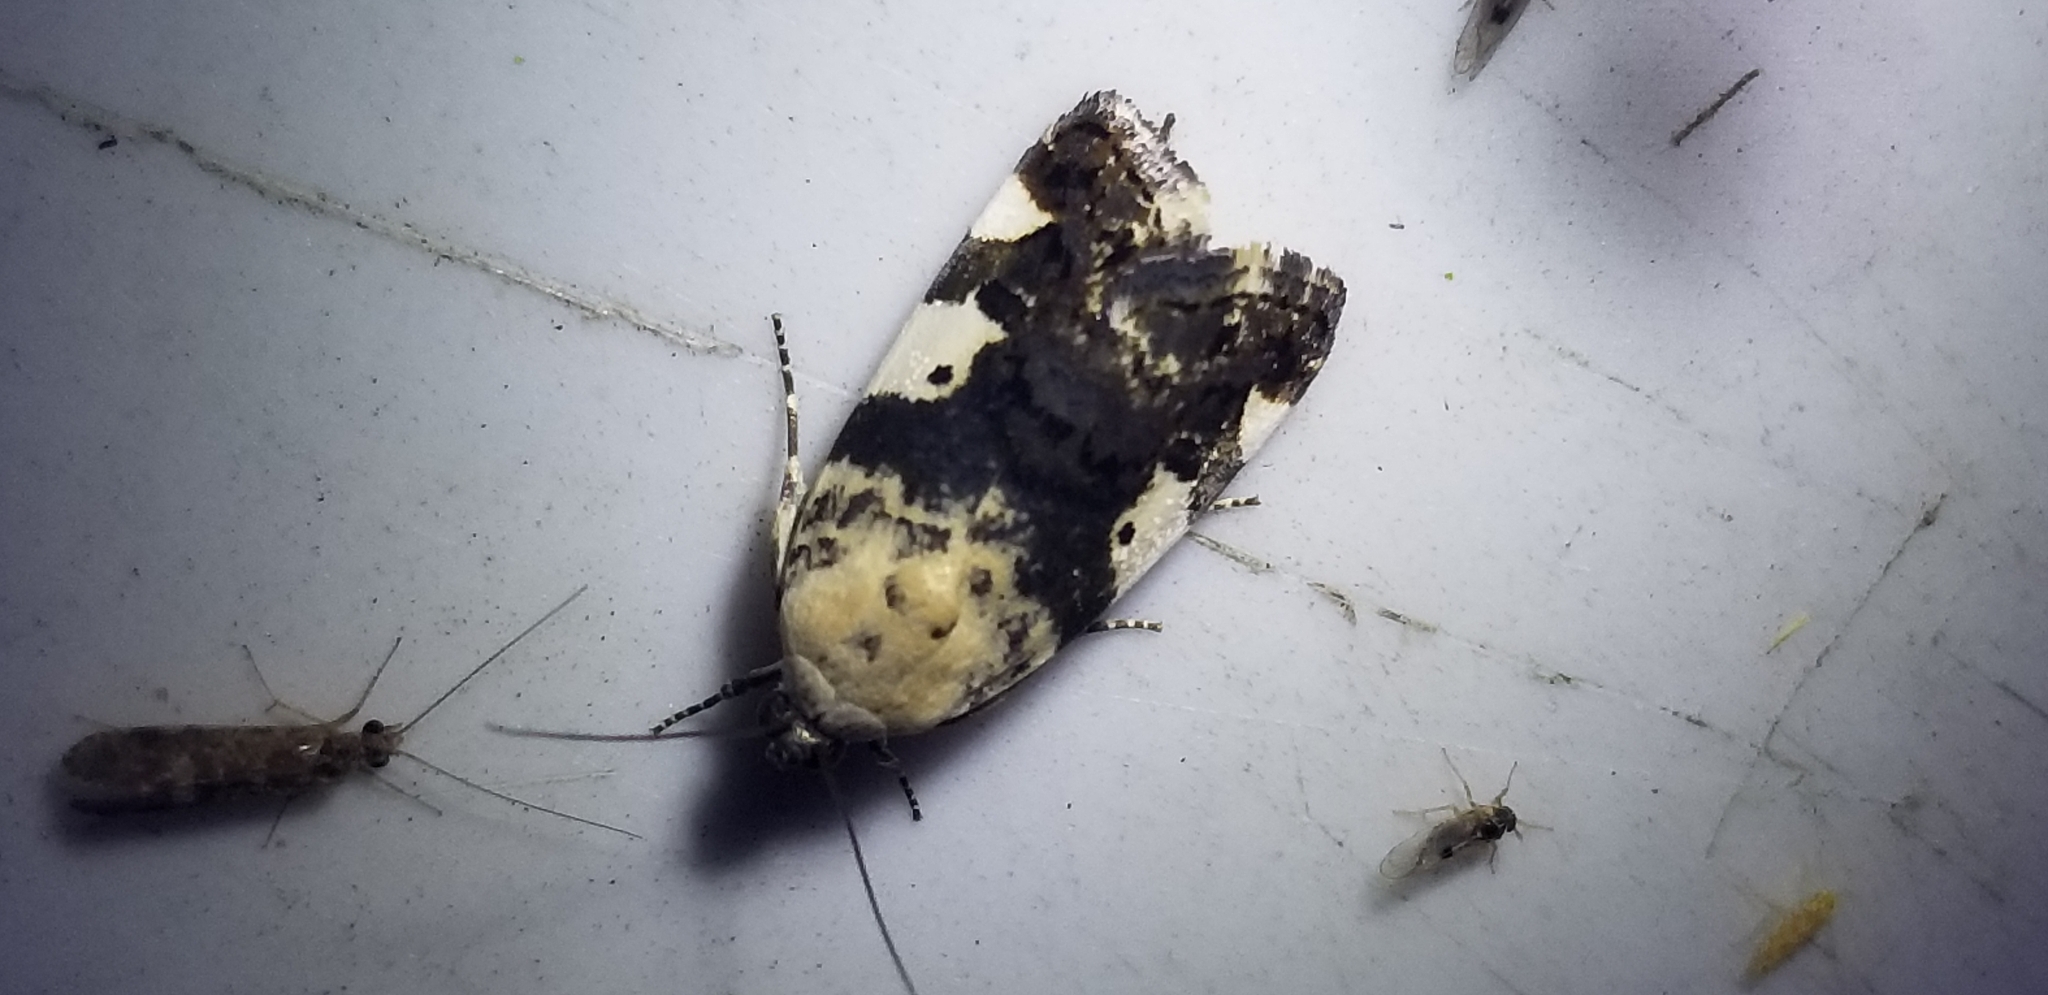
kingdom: Animalia
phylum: Arthropoda
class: Insecta
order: Lepidoptera
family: Noctuidae
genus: Acontia
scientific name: Acontia aprica
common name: Nun
